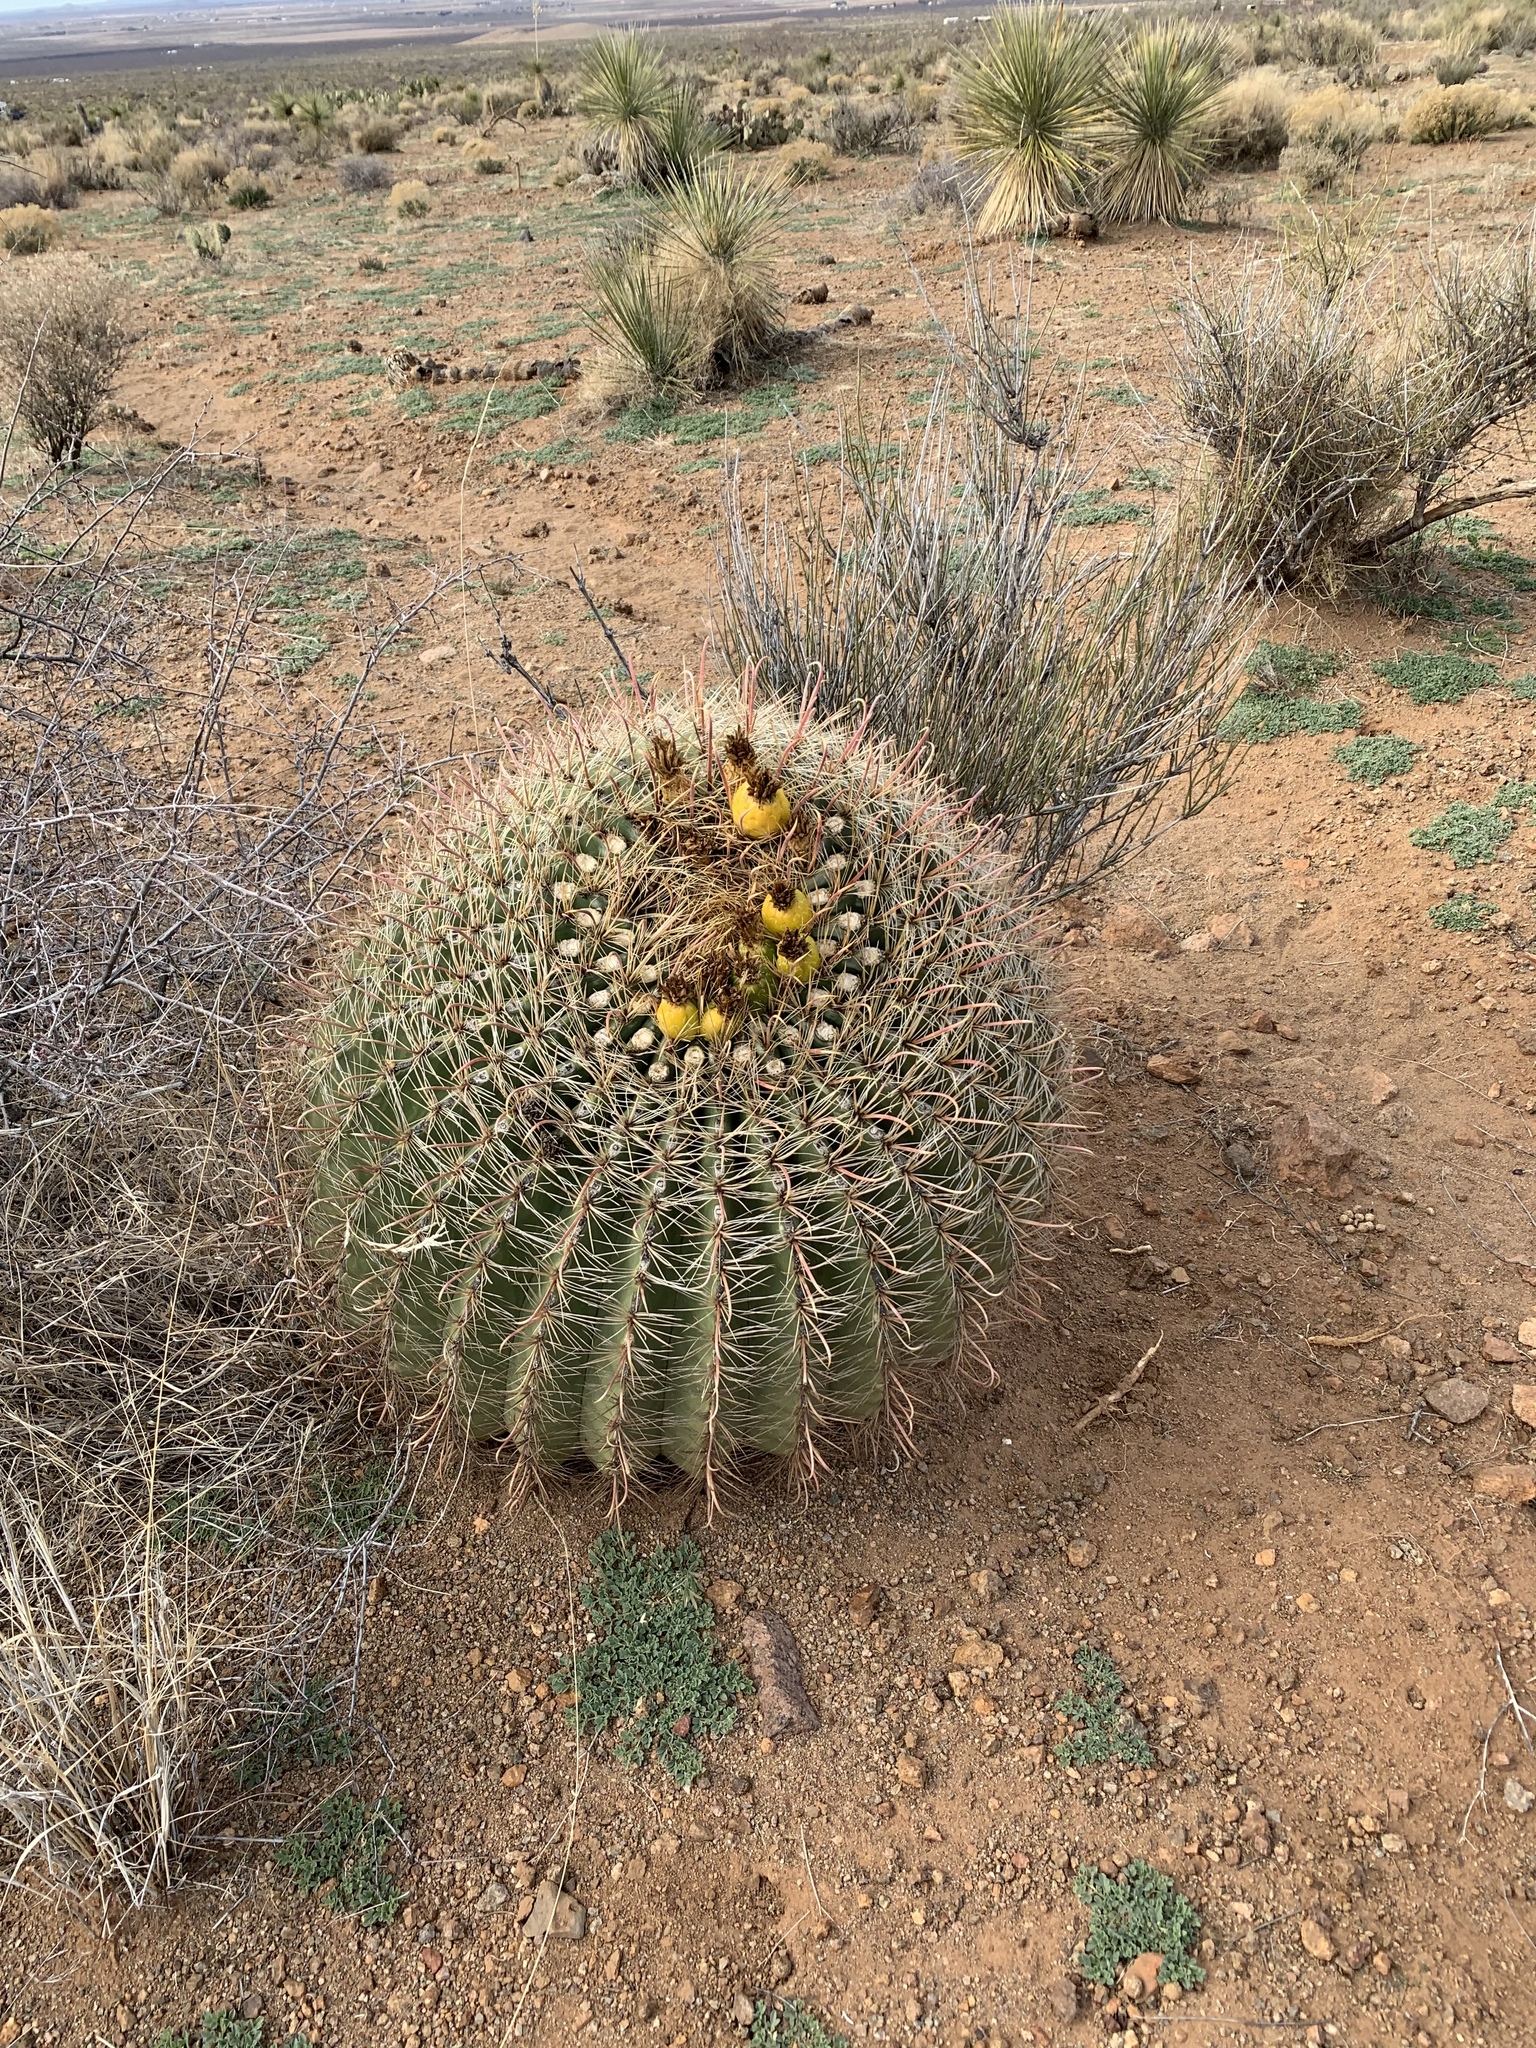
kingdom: Plantae
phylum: Tracheophyta
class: Magnoliopsida
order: Caryophyllales
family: Cactaceae
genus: Ferocactus
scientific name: Ferocactus wislizeni
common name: Candy barrel cactus
